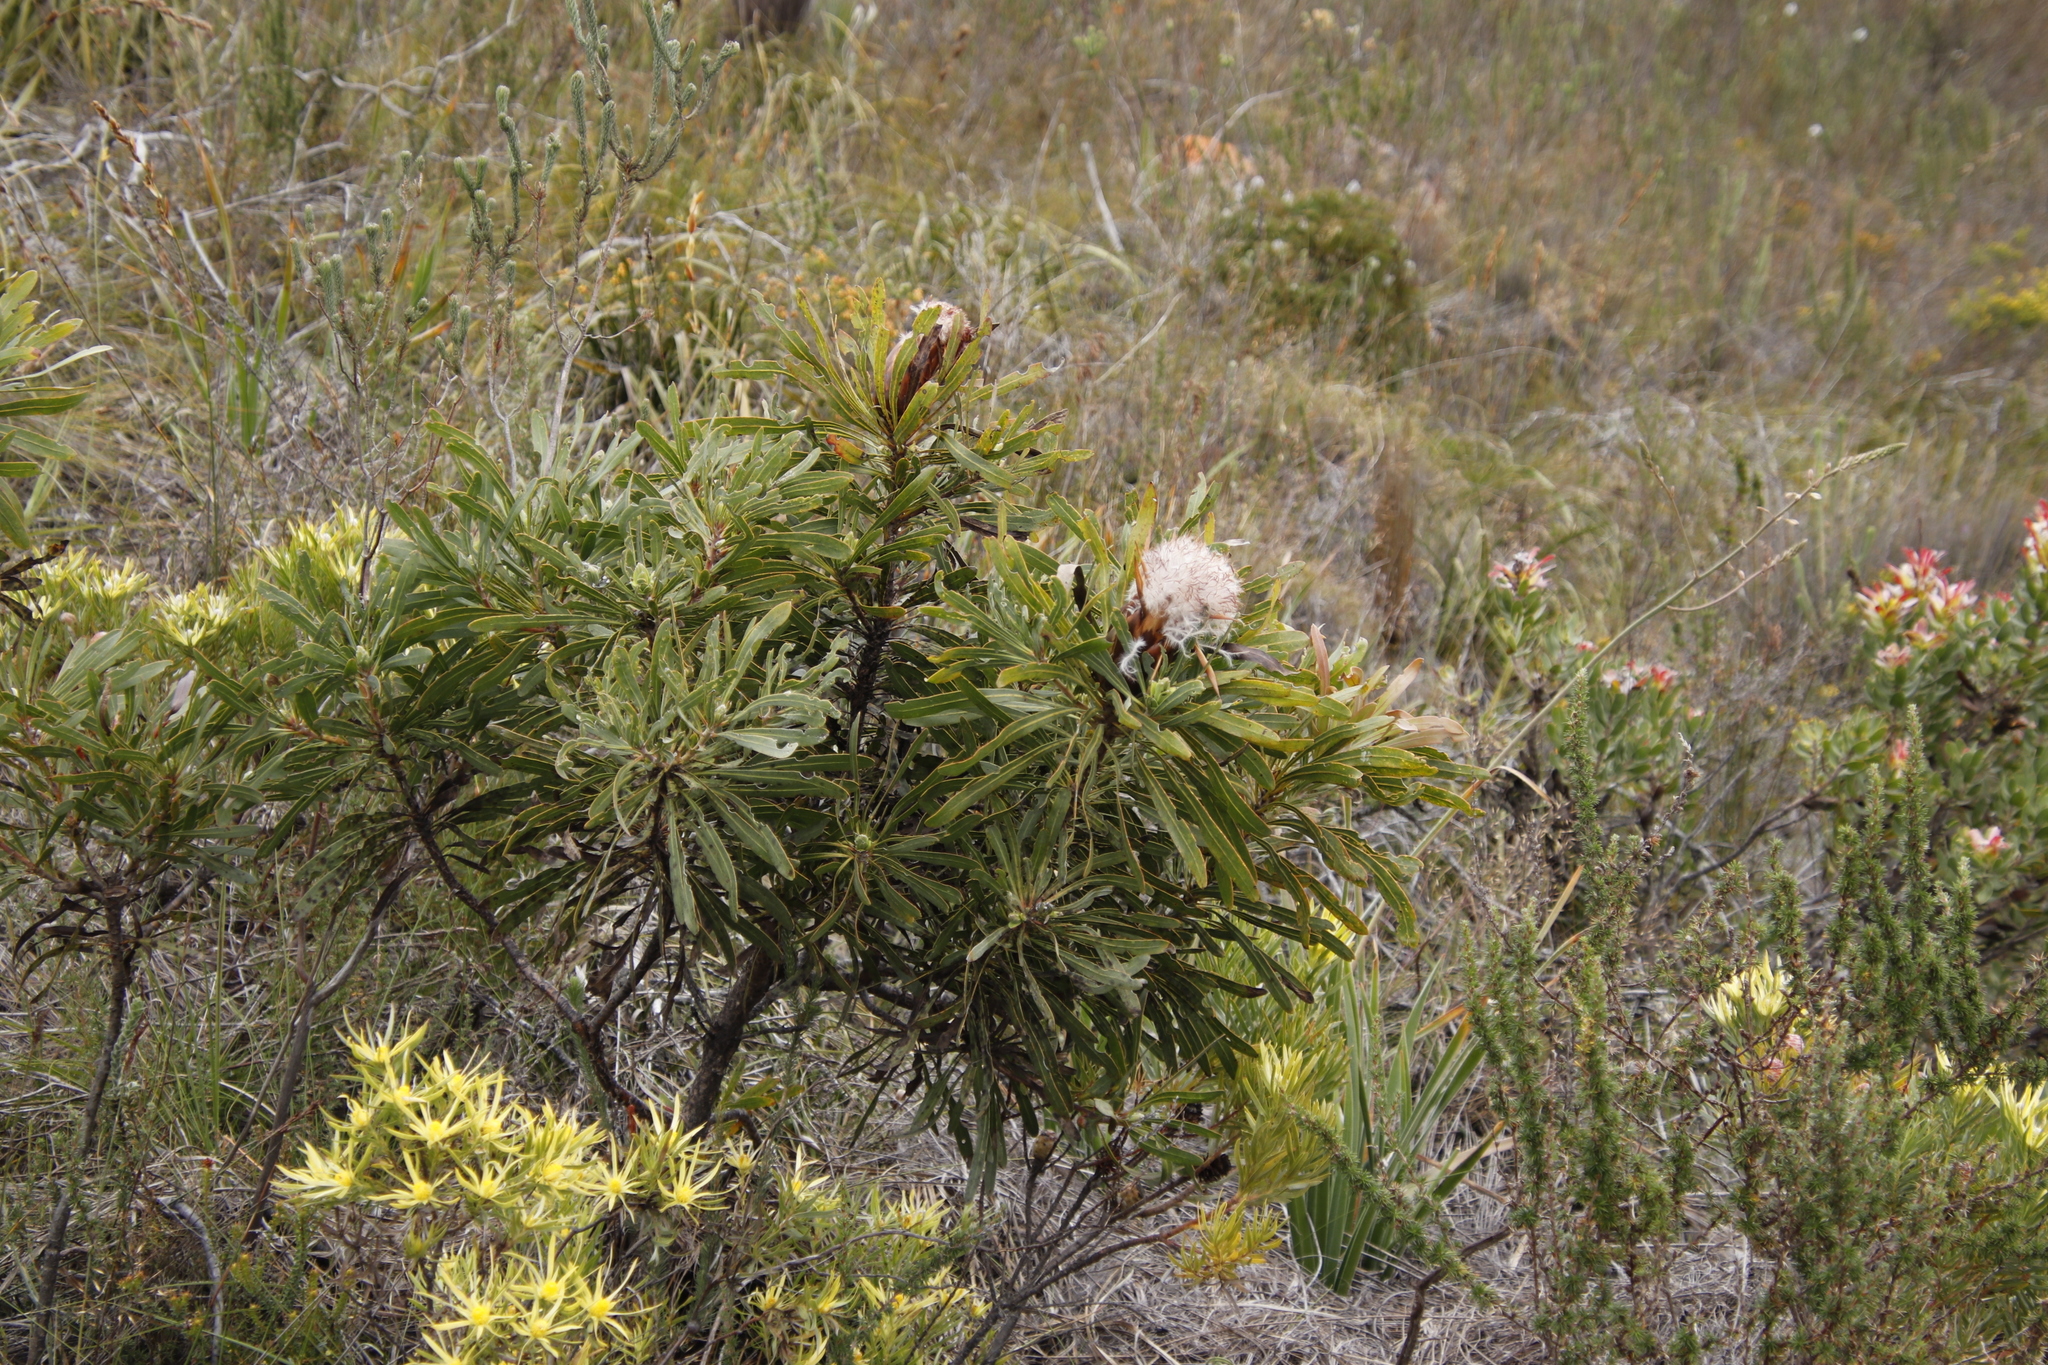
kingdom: Plantae
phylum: Tracheophyta
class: Magnoliopsida
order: Proteales
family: Proteaceae
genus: Protea
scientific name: Protea longifolia
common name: Long-leaf sugarbush
